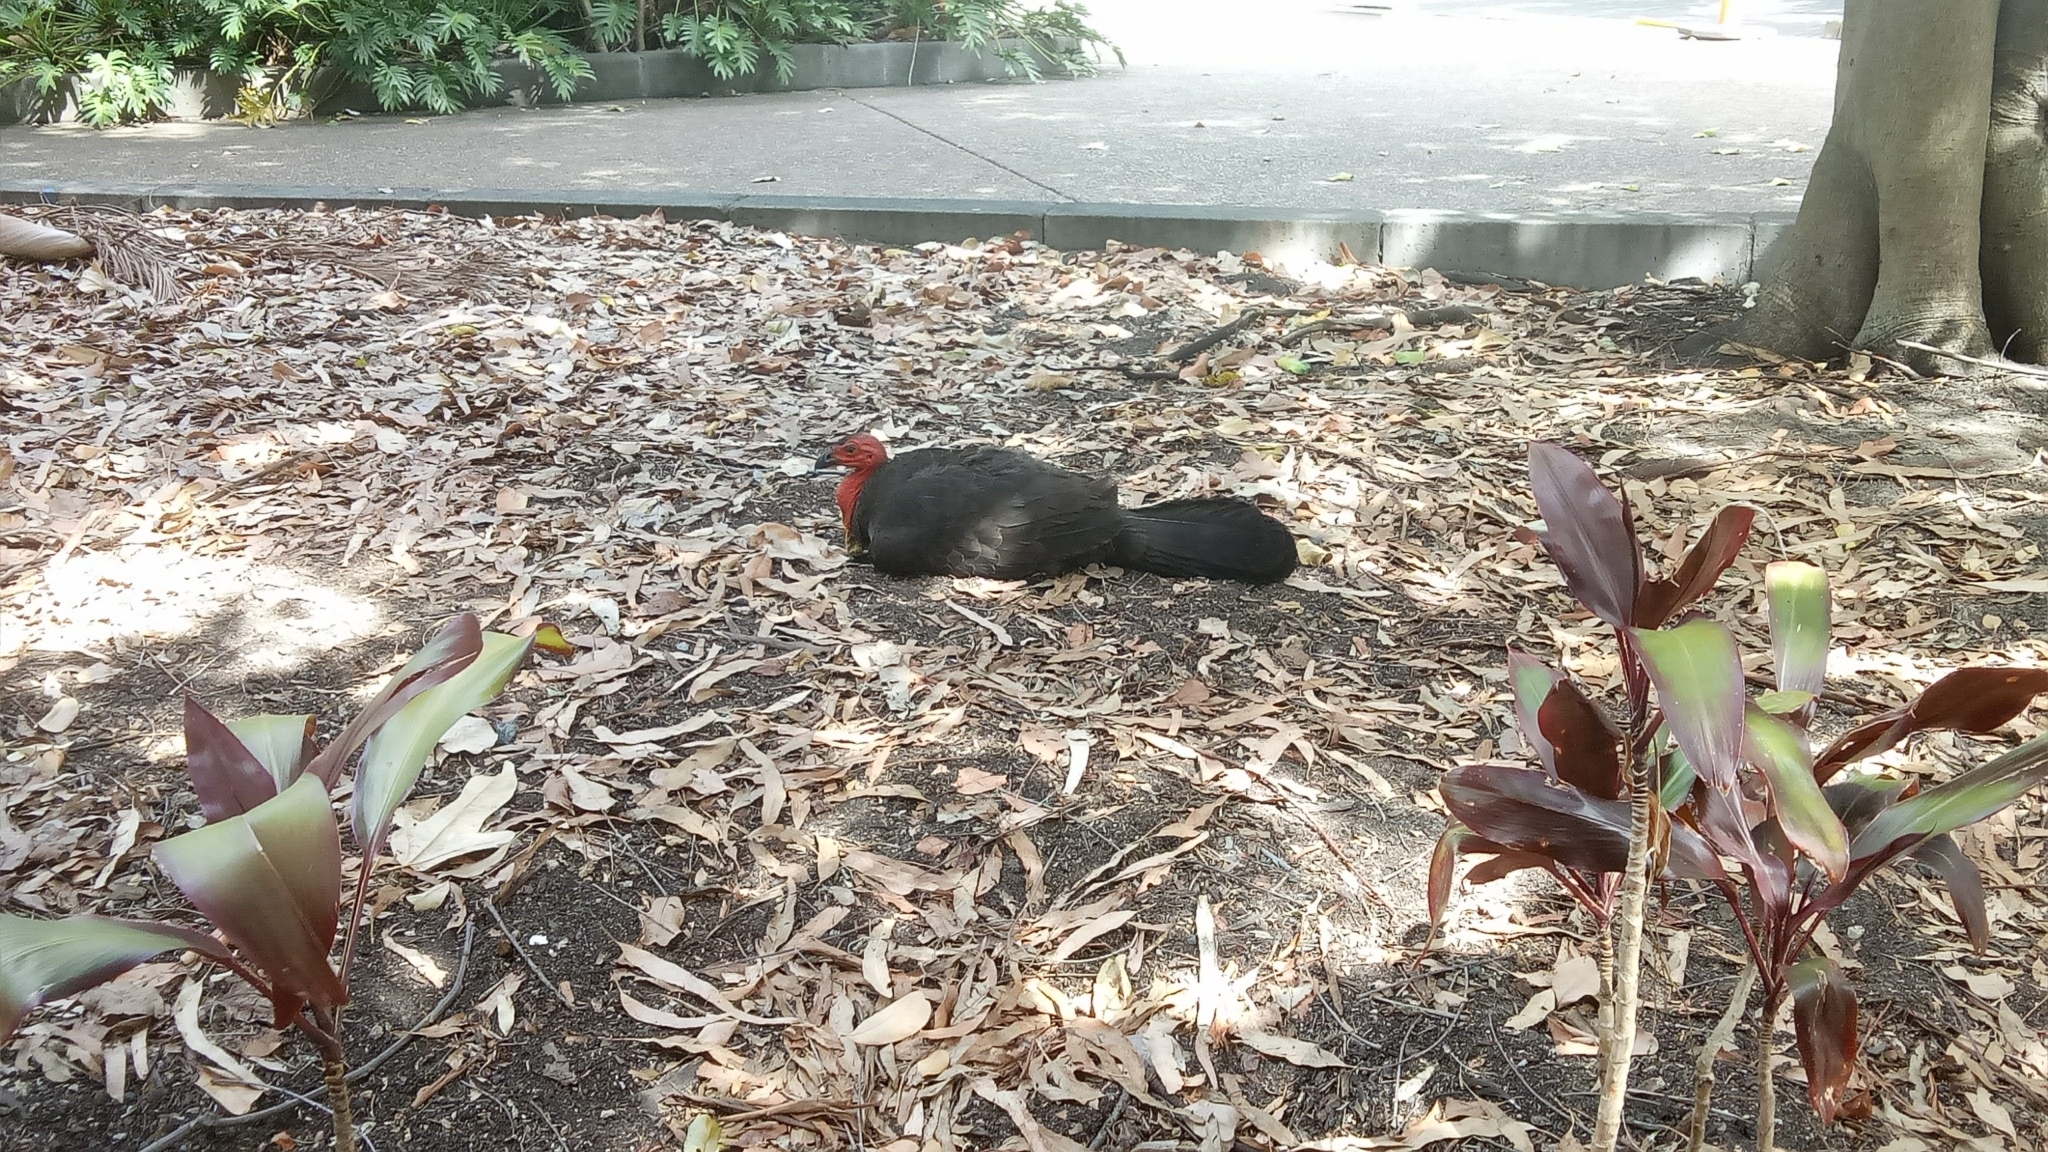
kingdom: Animalia
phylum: Chordata
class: Aves
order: Galliformes
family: Megapodiidae
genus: Alectura
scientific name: Alectura lathami
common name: Australian brushturkey
